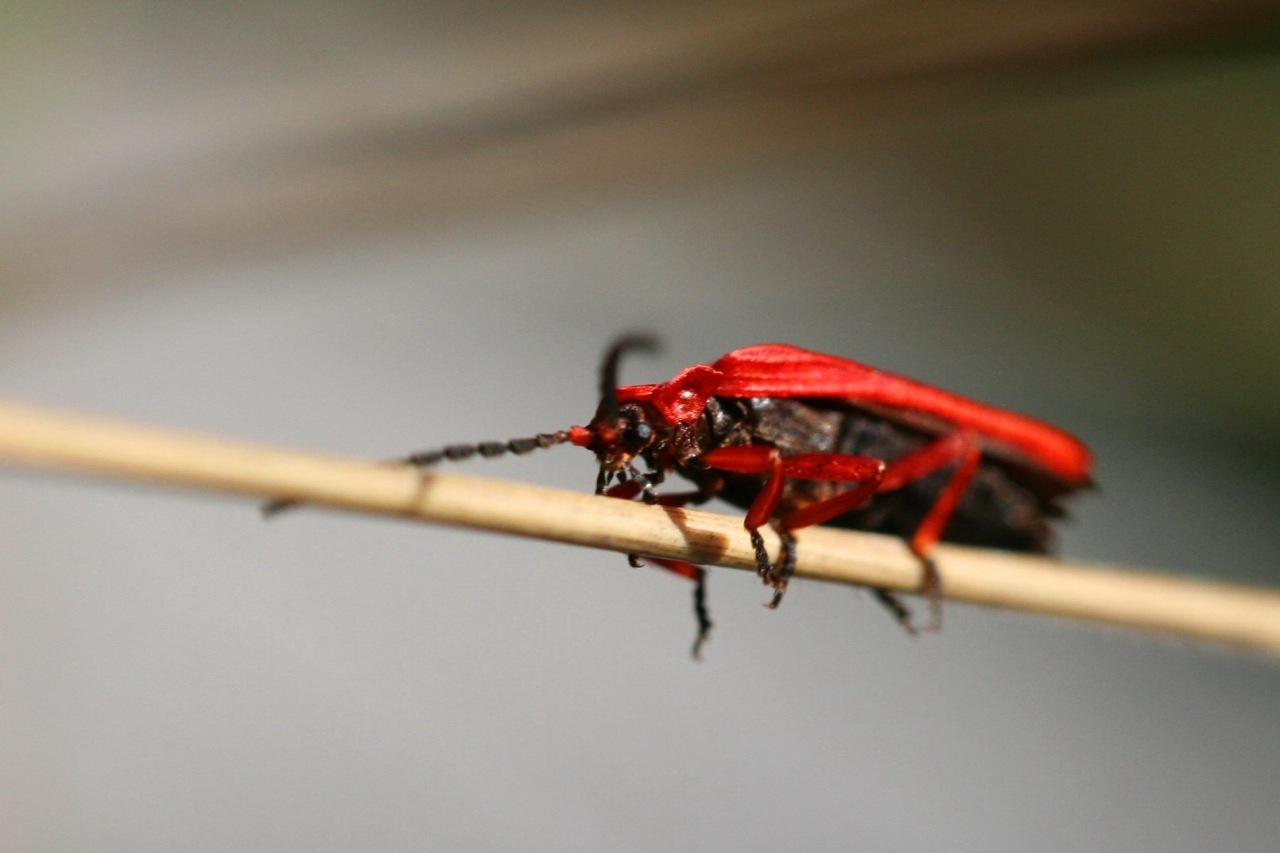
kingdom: Animalia
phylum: Arthropoda
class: Insecta
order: Coleoptera
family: Lycidae
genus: Dictyoptera
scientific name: Dictyoptera simplicipes
